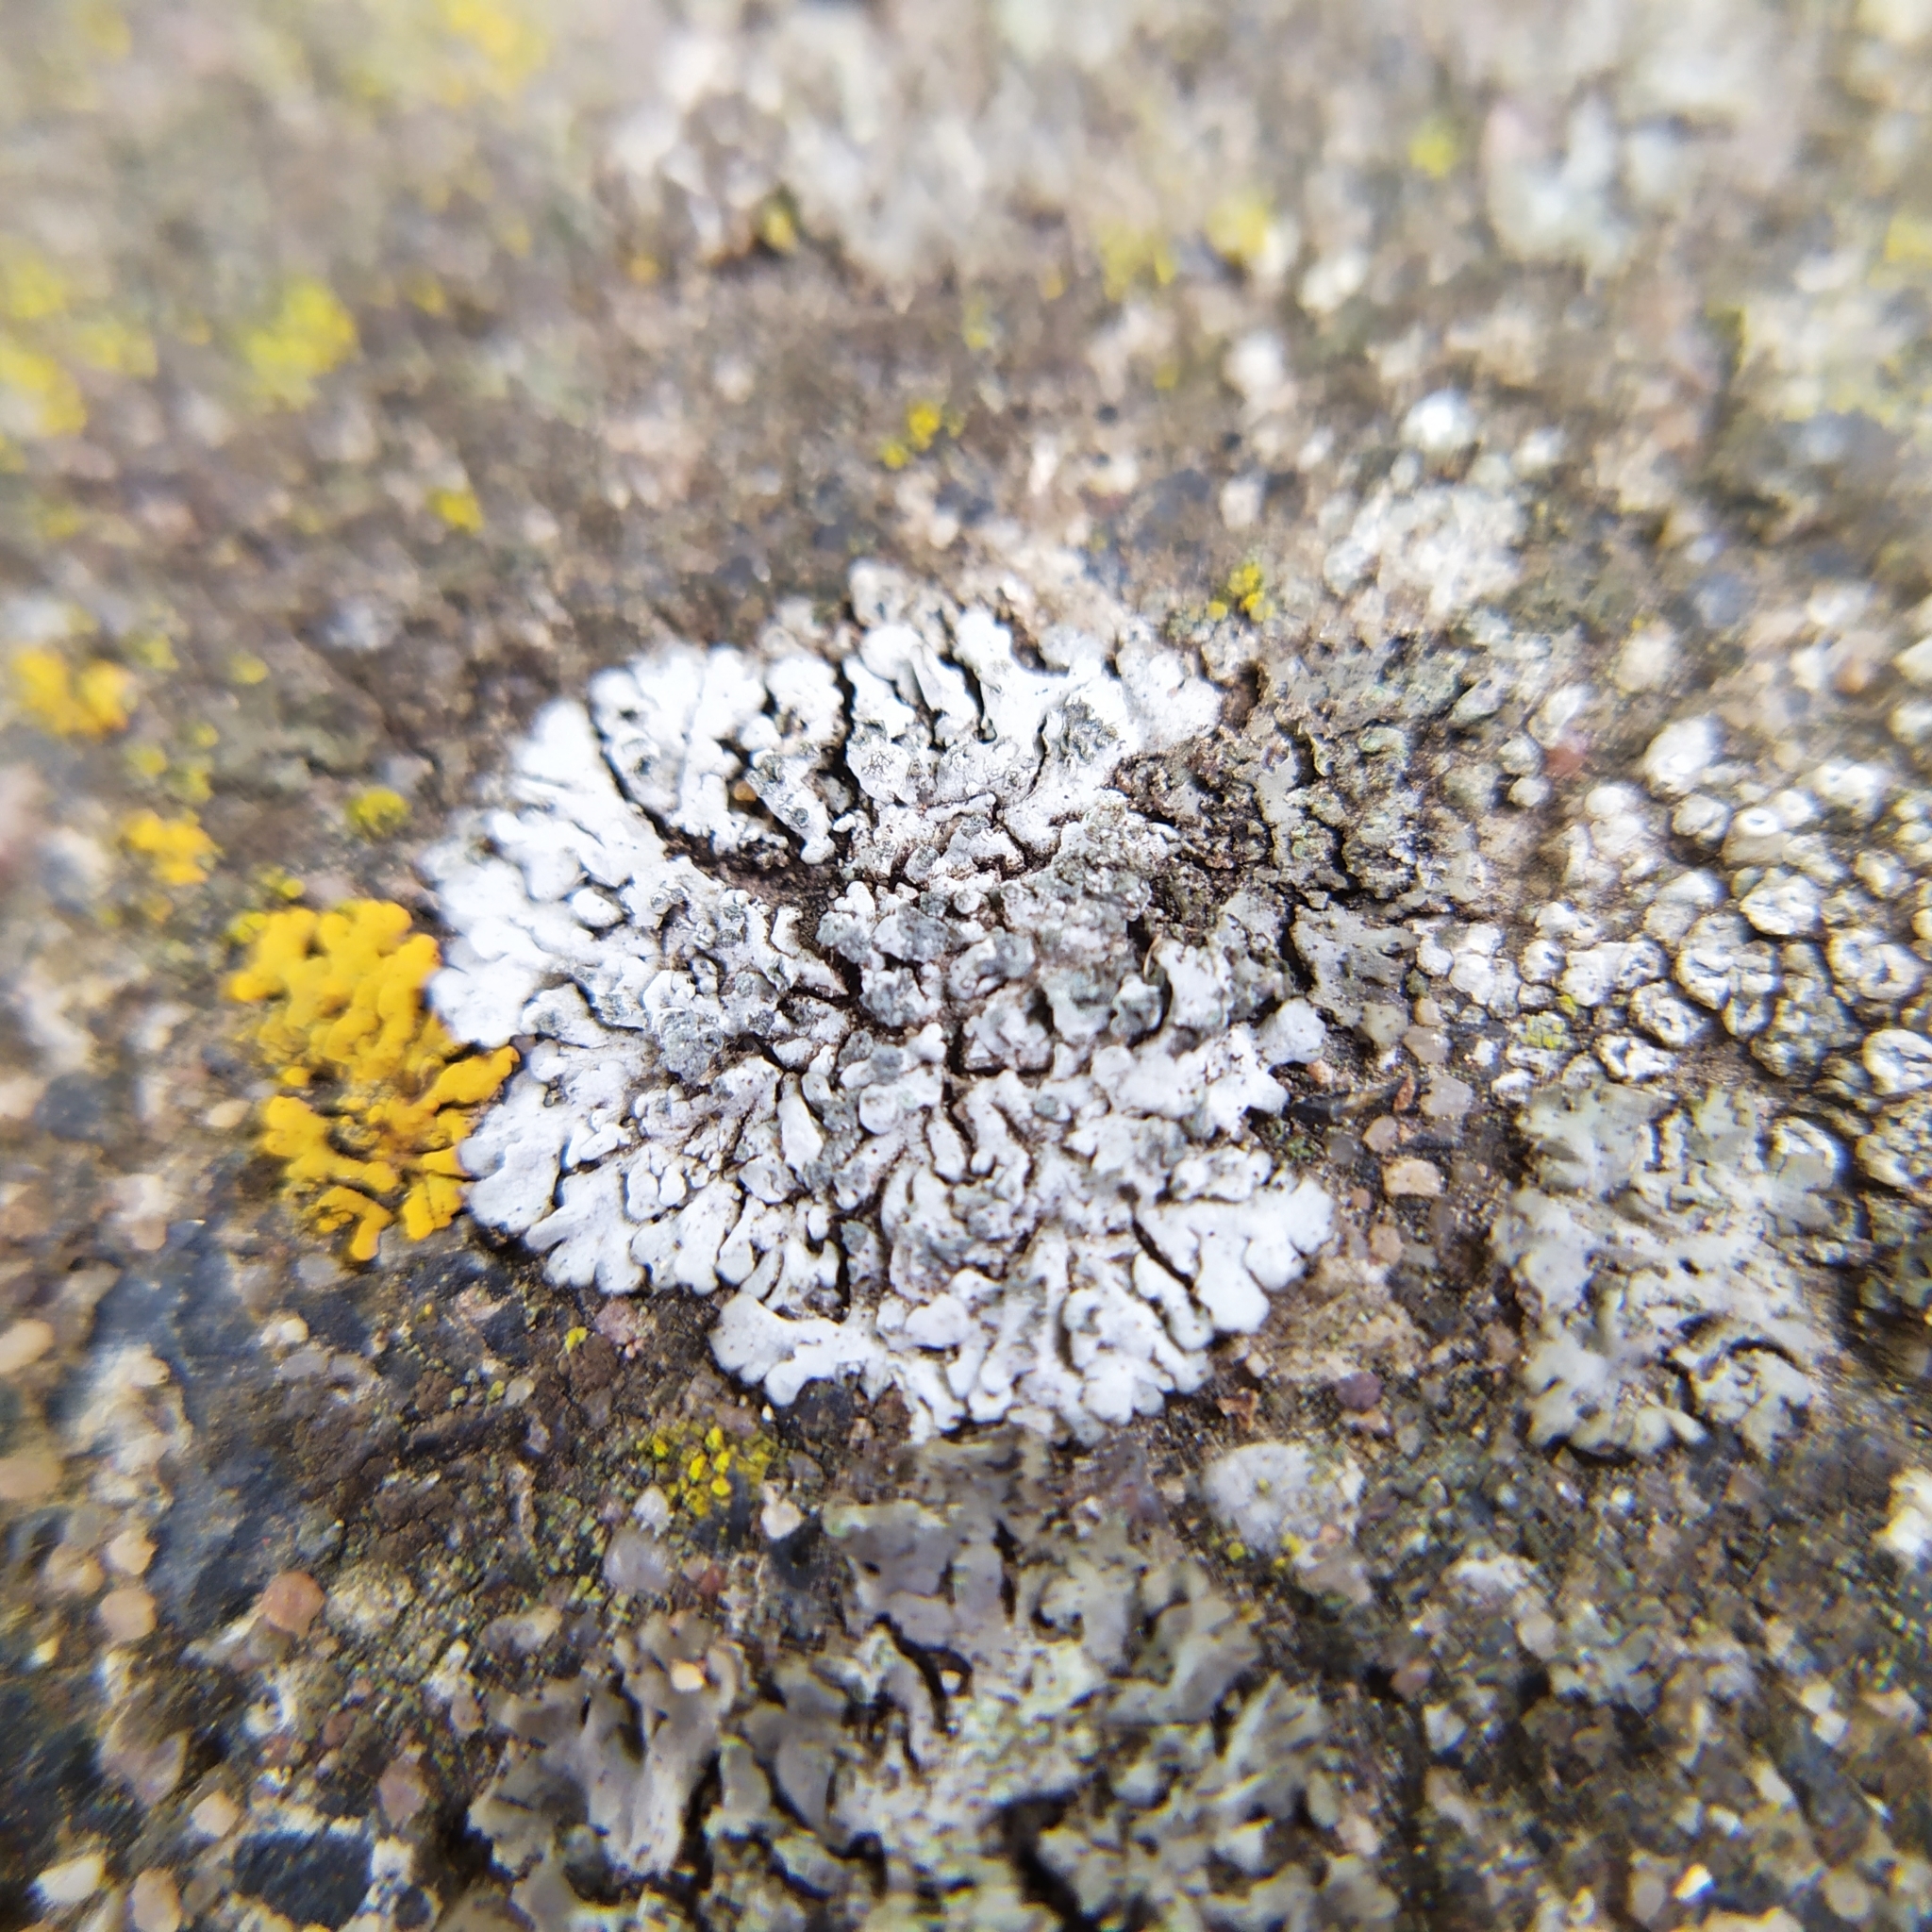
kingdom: Fungi
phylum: Ascomycota
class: Lecanoromycetes
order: Caliciales
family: Physciaceae
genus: Physcia
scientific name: Physcia caesia
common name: Blue-gray rosette lichen
